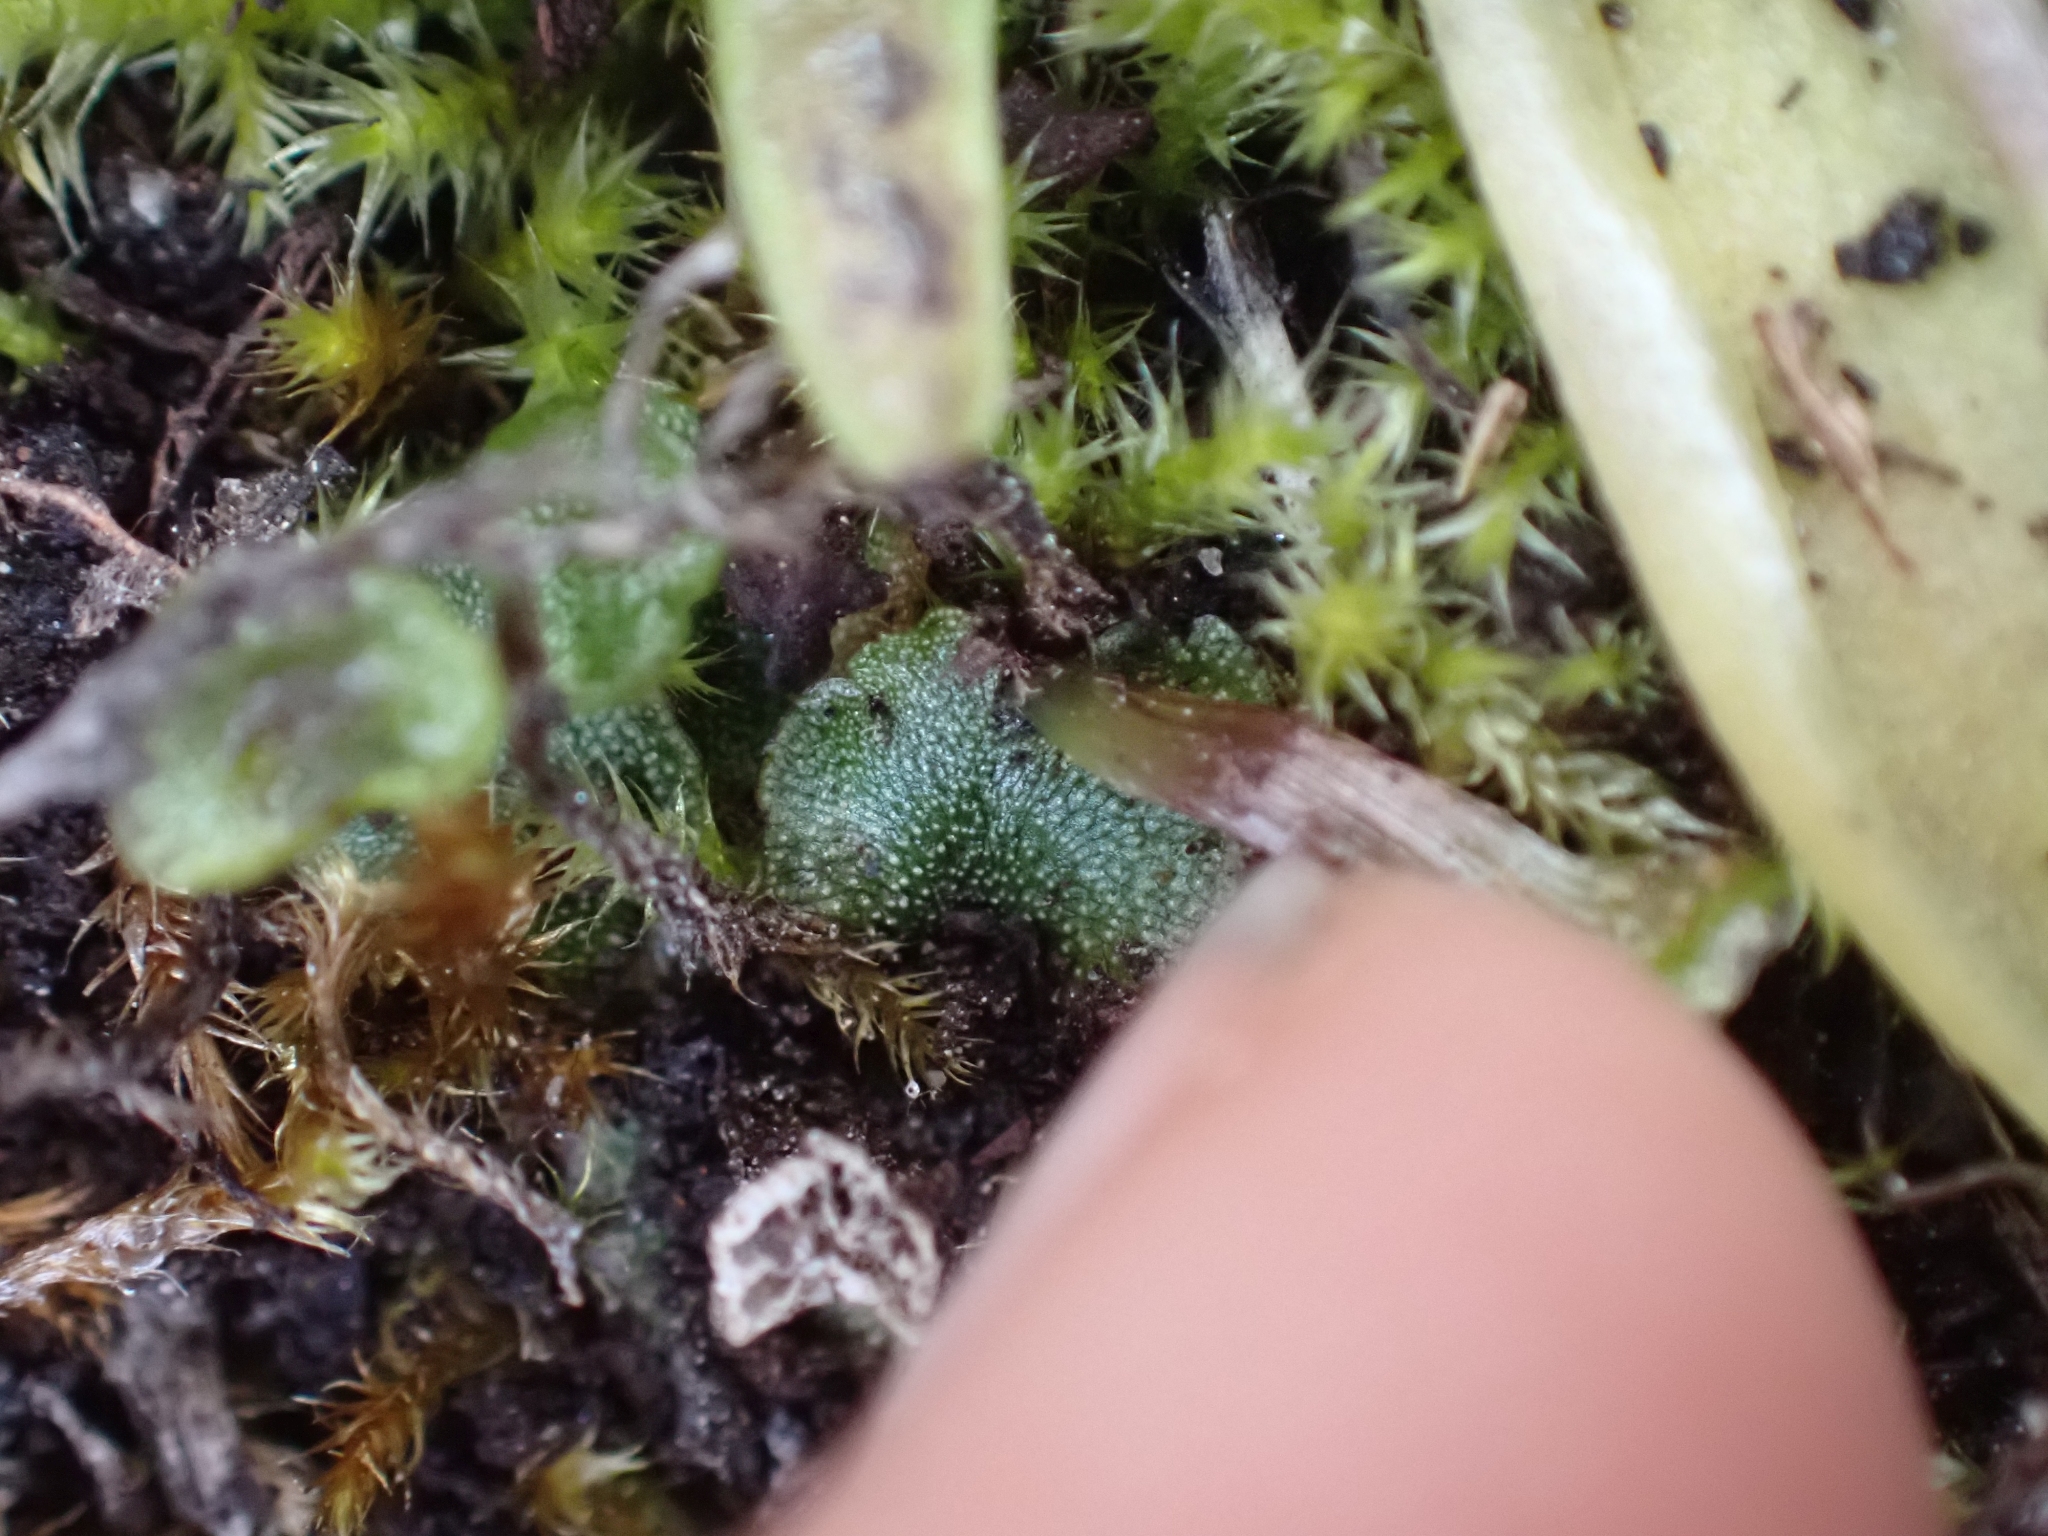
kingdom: Plantae
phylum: Marchantiophyta
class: Marchantiopsida
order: Marchantiales
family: Marchantiaceae
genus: Marchantia
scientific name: Marchantia quadrata
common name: Narrow mushroom-headed liverwort
